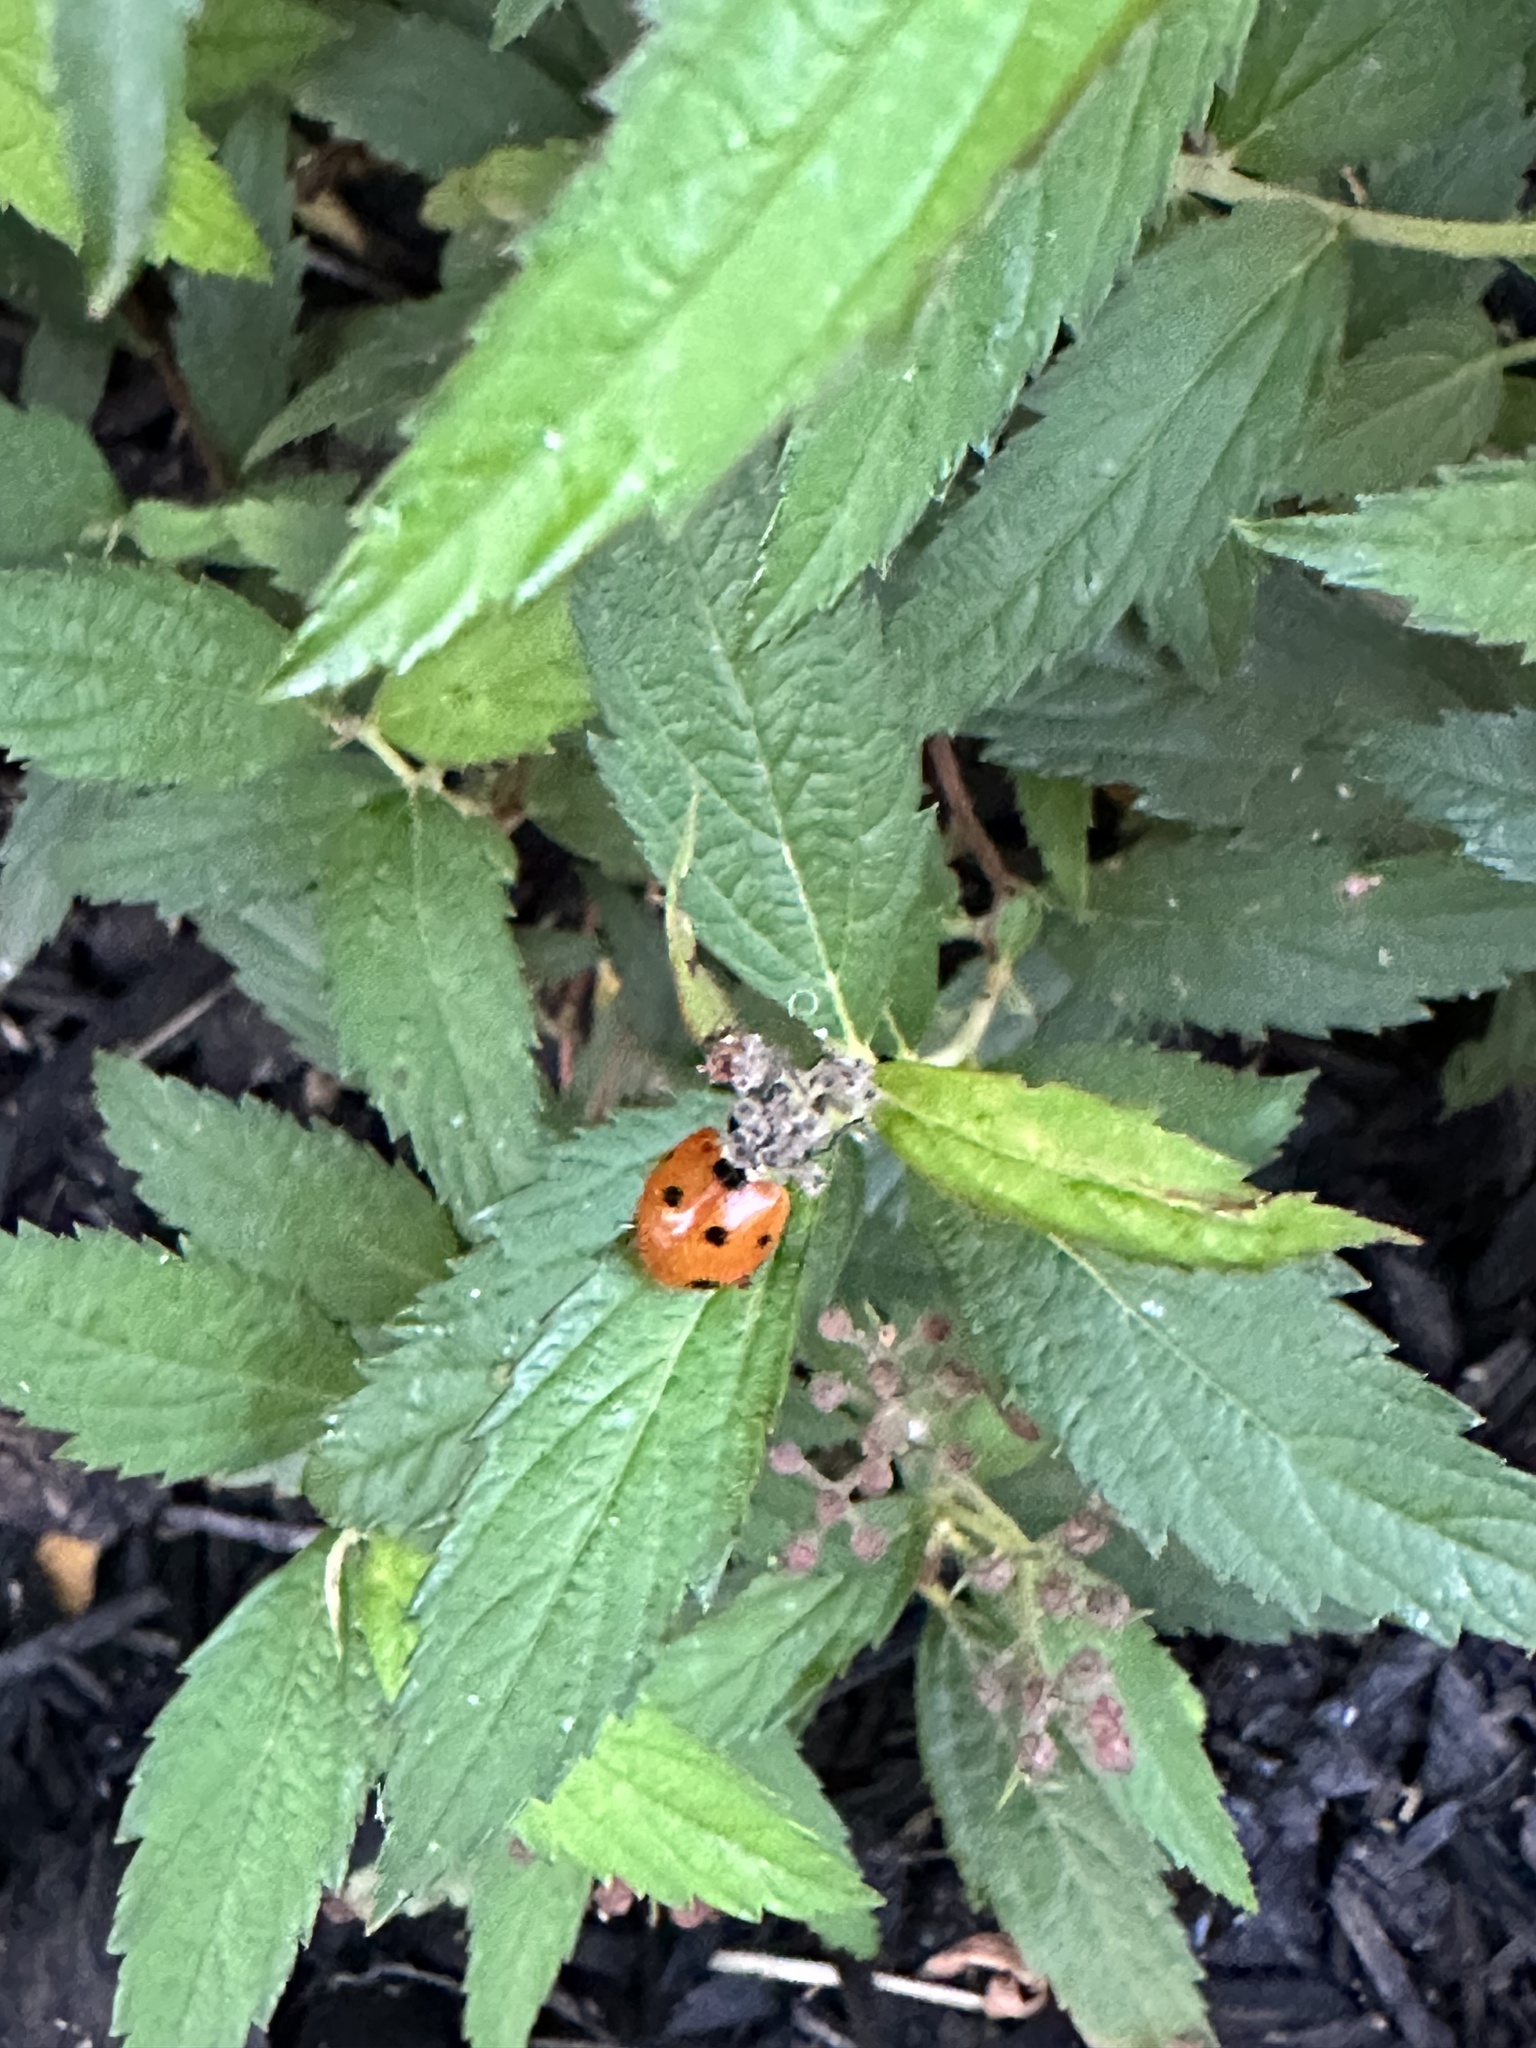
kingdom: Animalia
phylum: Arthropoda
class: Insecta
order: Coleoptera
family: Coccinellidae
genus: Coccinella
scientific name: Coccinella septempunctata
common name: Sevenspotted lady beetle
